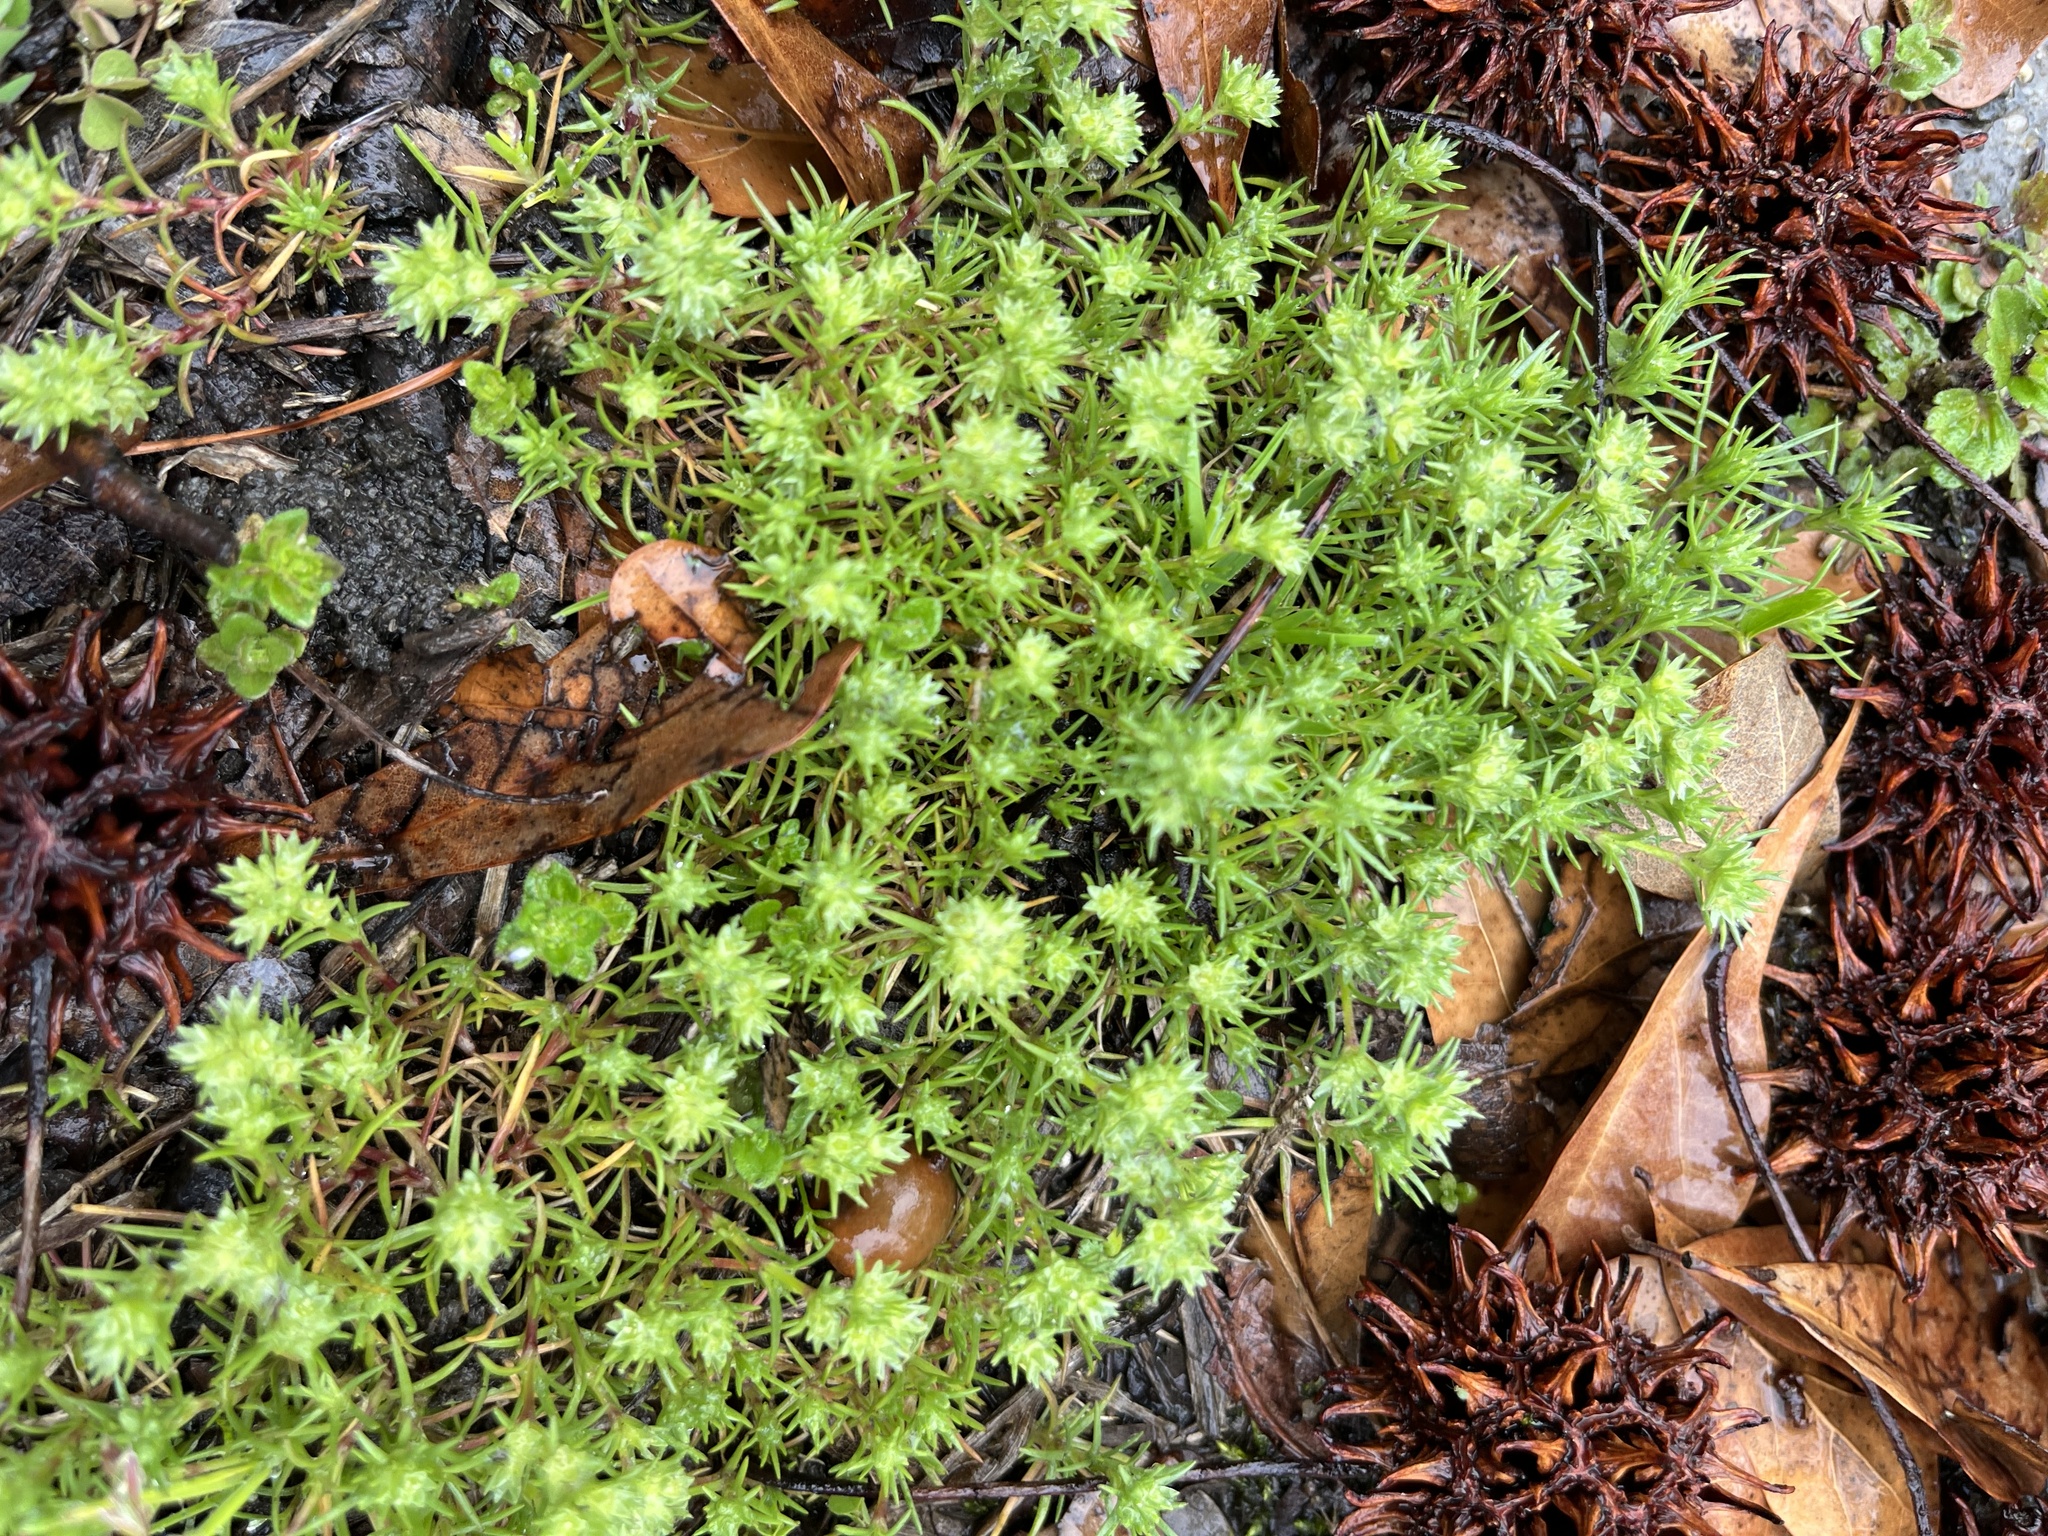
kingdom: Plantae
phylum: Tracheophyta
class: Magnoliopsida
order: Caryophyllales
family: Caryophyllaceae
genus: Scleranthus
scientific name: Scleranthus annuus
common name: Annual knawel
